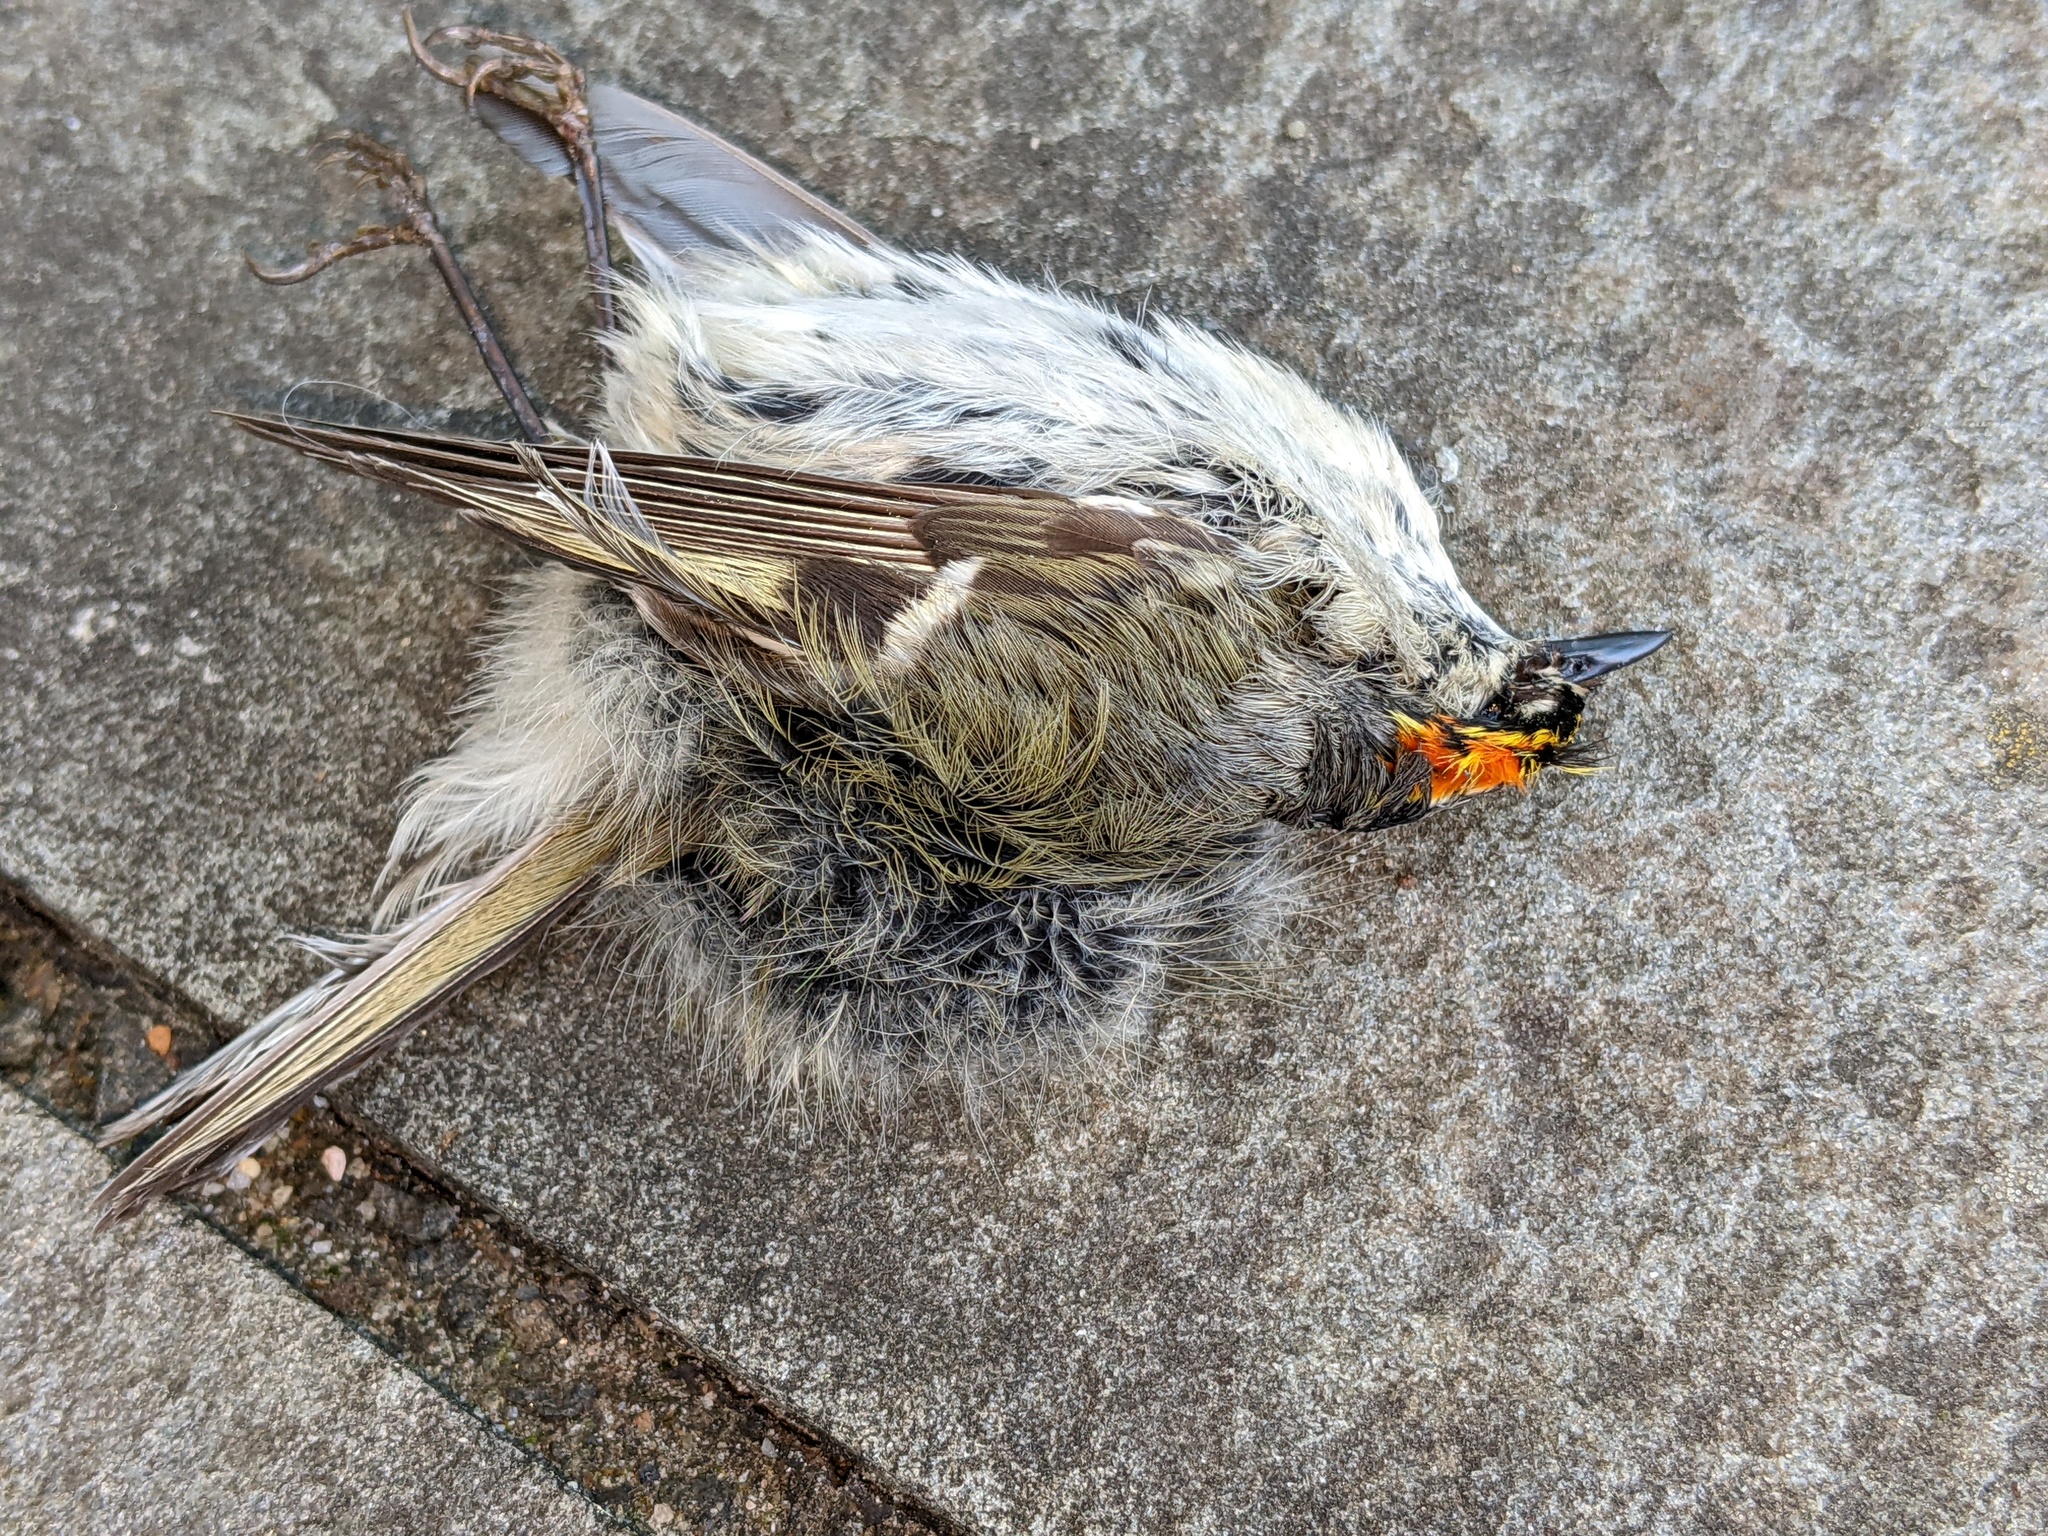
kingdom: Animalia
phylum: Chordata
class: Aves
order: Passeriformes
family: Regulidae
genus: Regulus
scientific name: Regulus satrapa
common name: Golden-crowned kinglet
